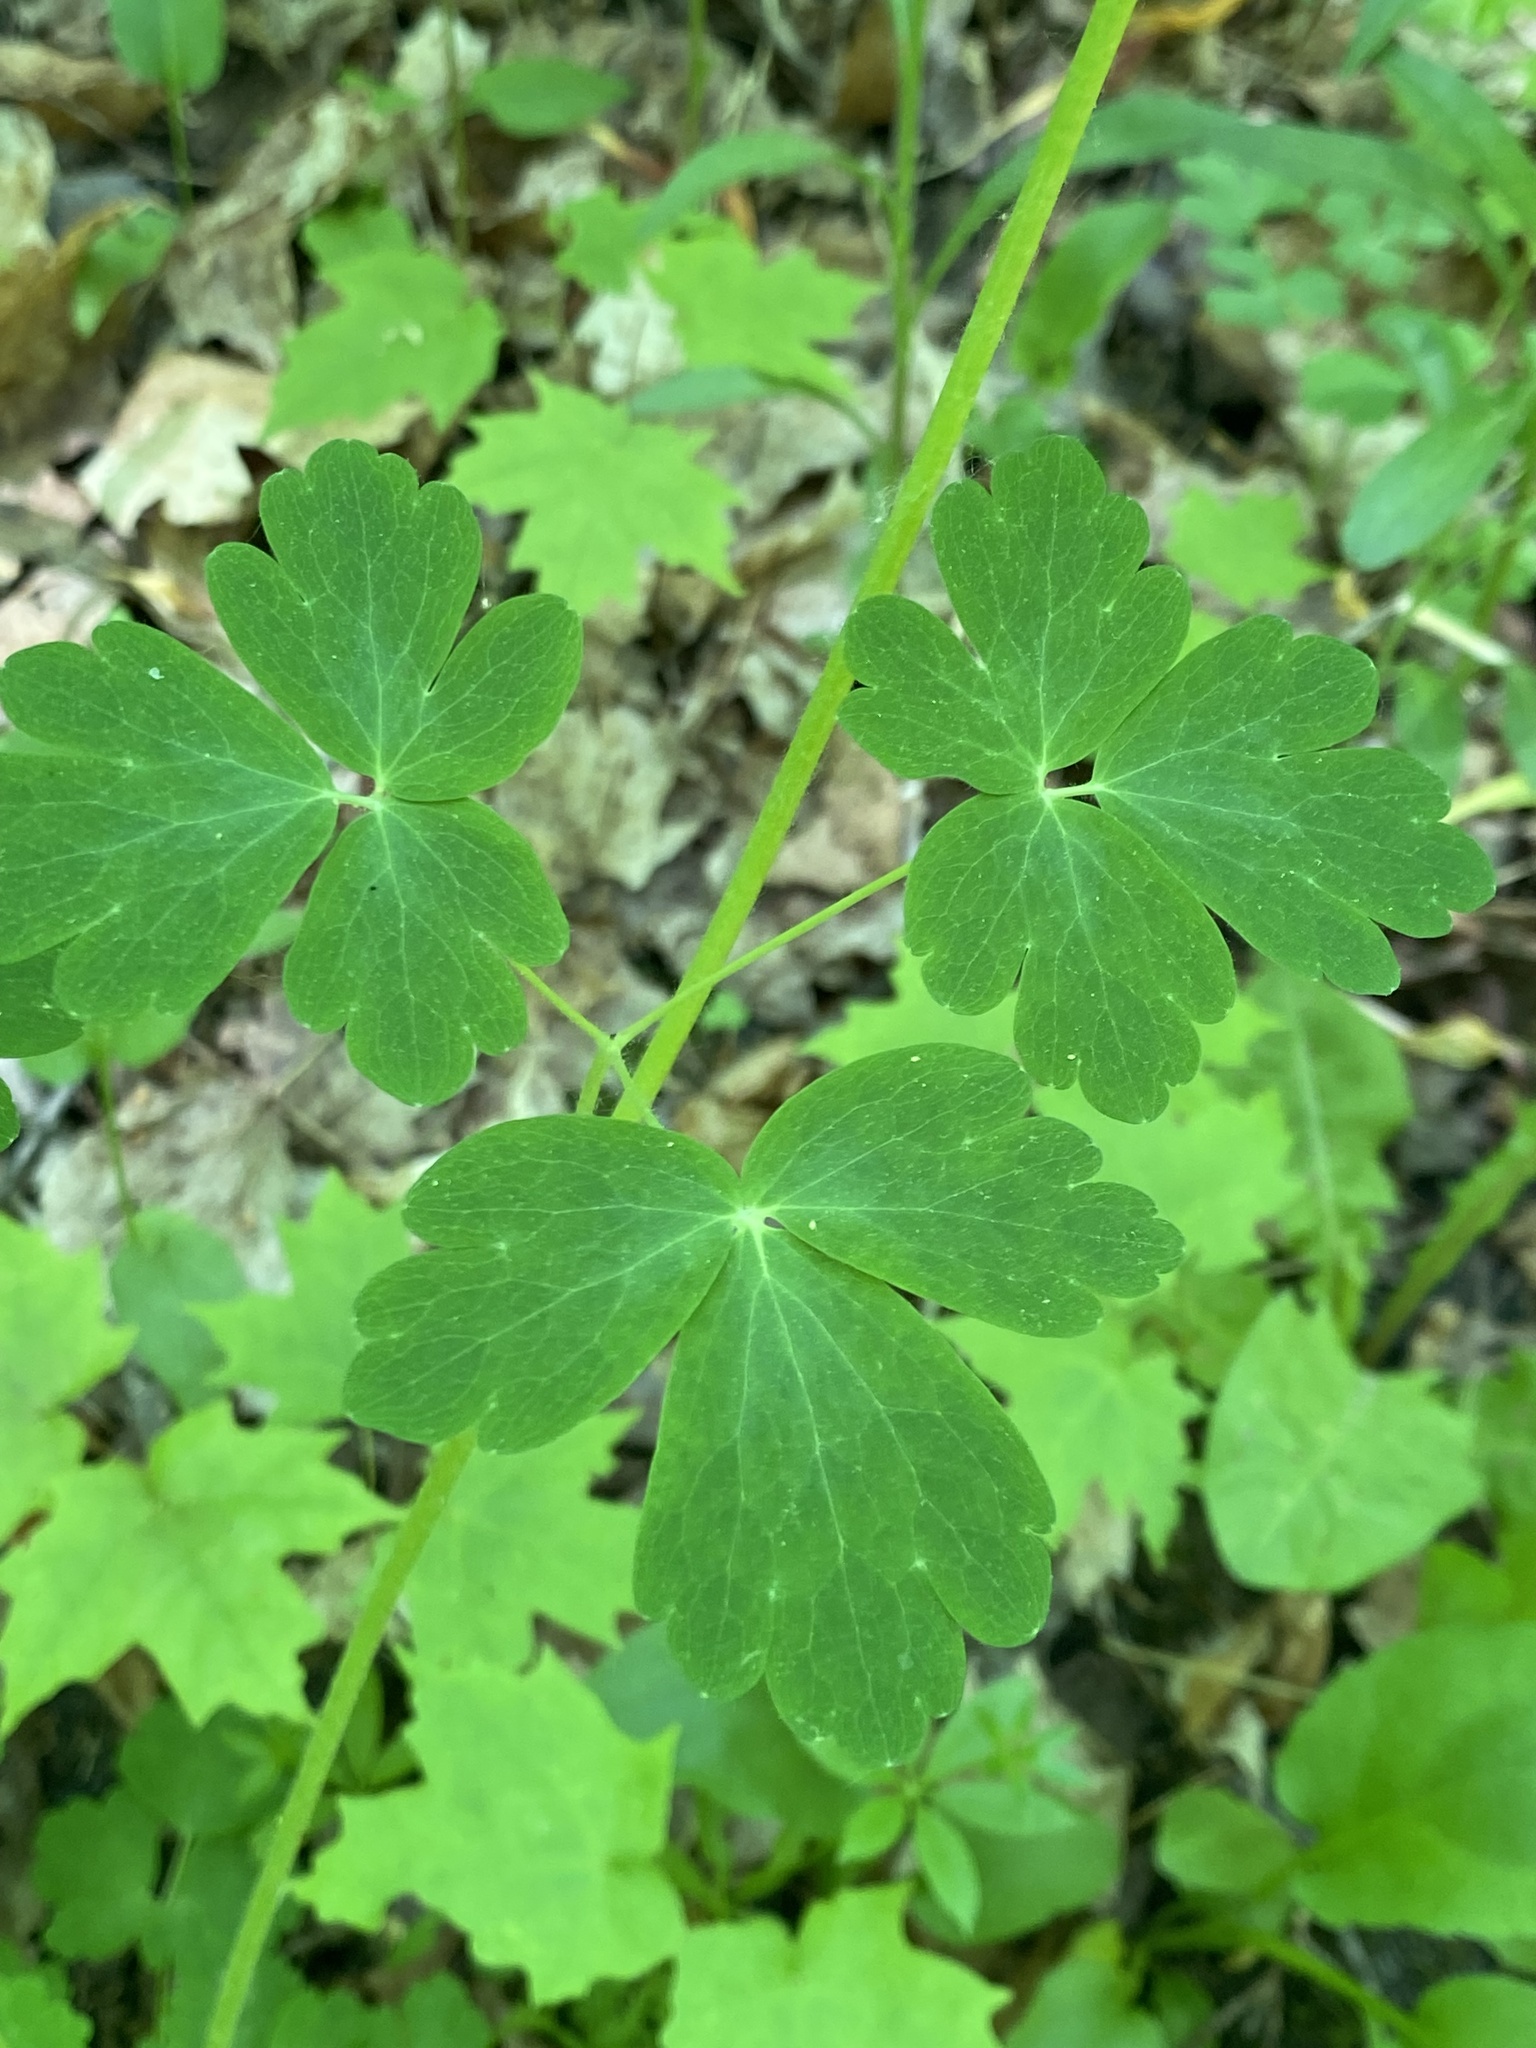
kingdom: Plantae
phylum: Tracheophyta
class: Magnoliopsida
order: Ranunculales
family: Ranunculaceae
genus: Aquilegia
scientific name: Aquilegia canadensis
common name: American columbine
